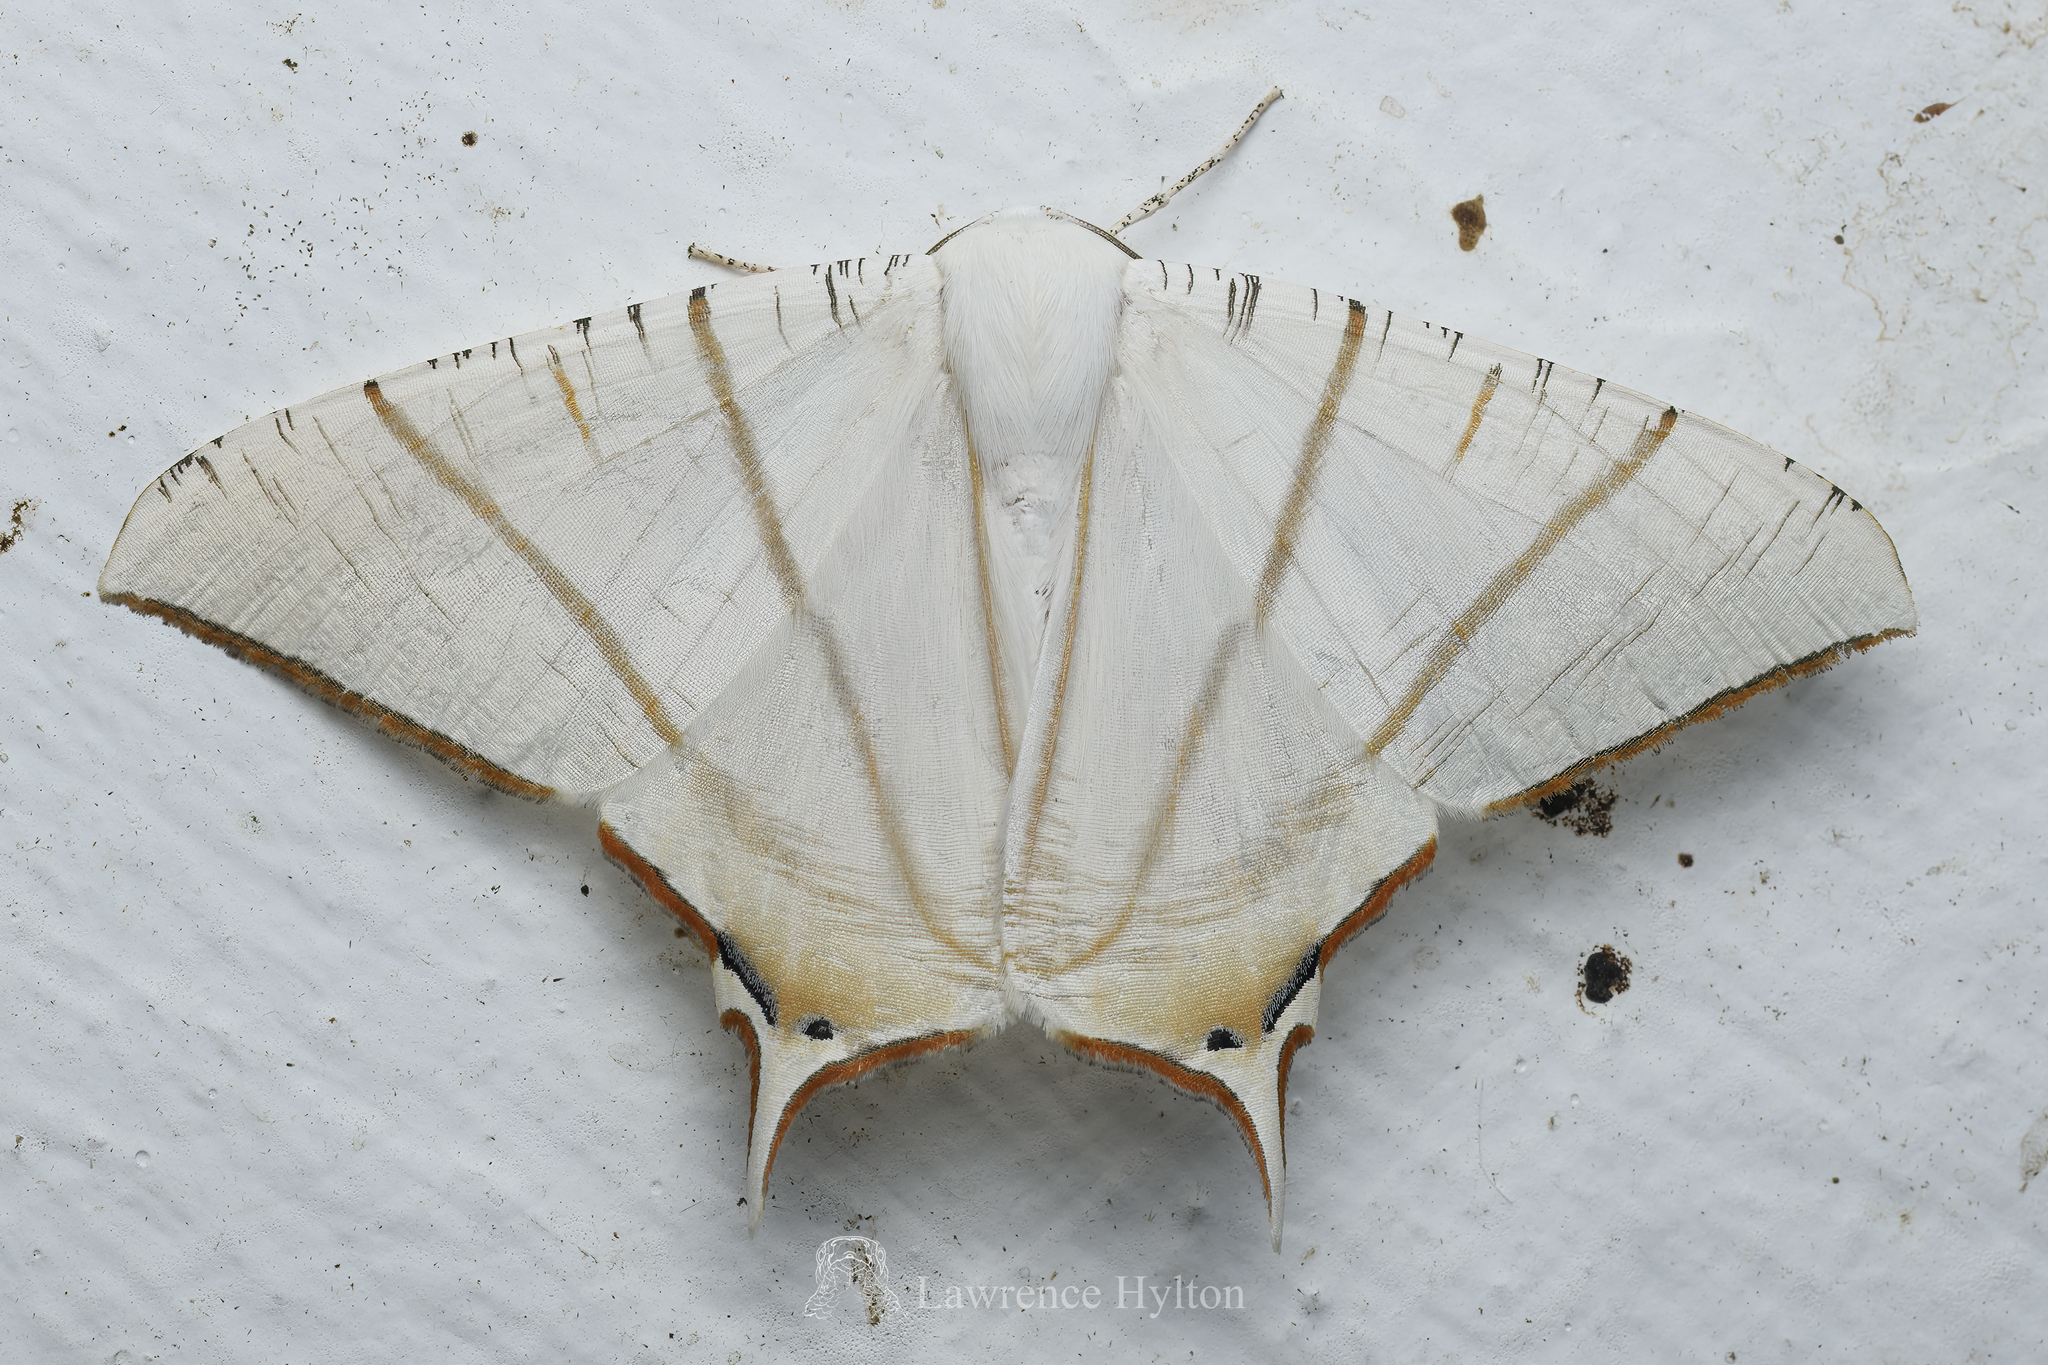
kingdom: Animalia
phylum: Arthropoda
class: Insecta
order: Lepidoptera
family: Geometridae
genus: Ourapteryx
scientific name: Ourapteryx clara
